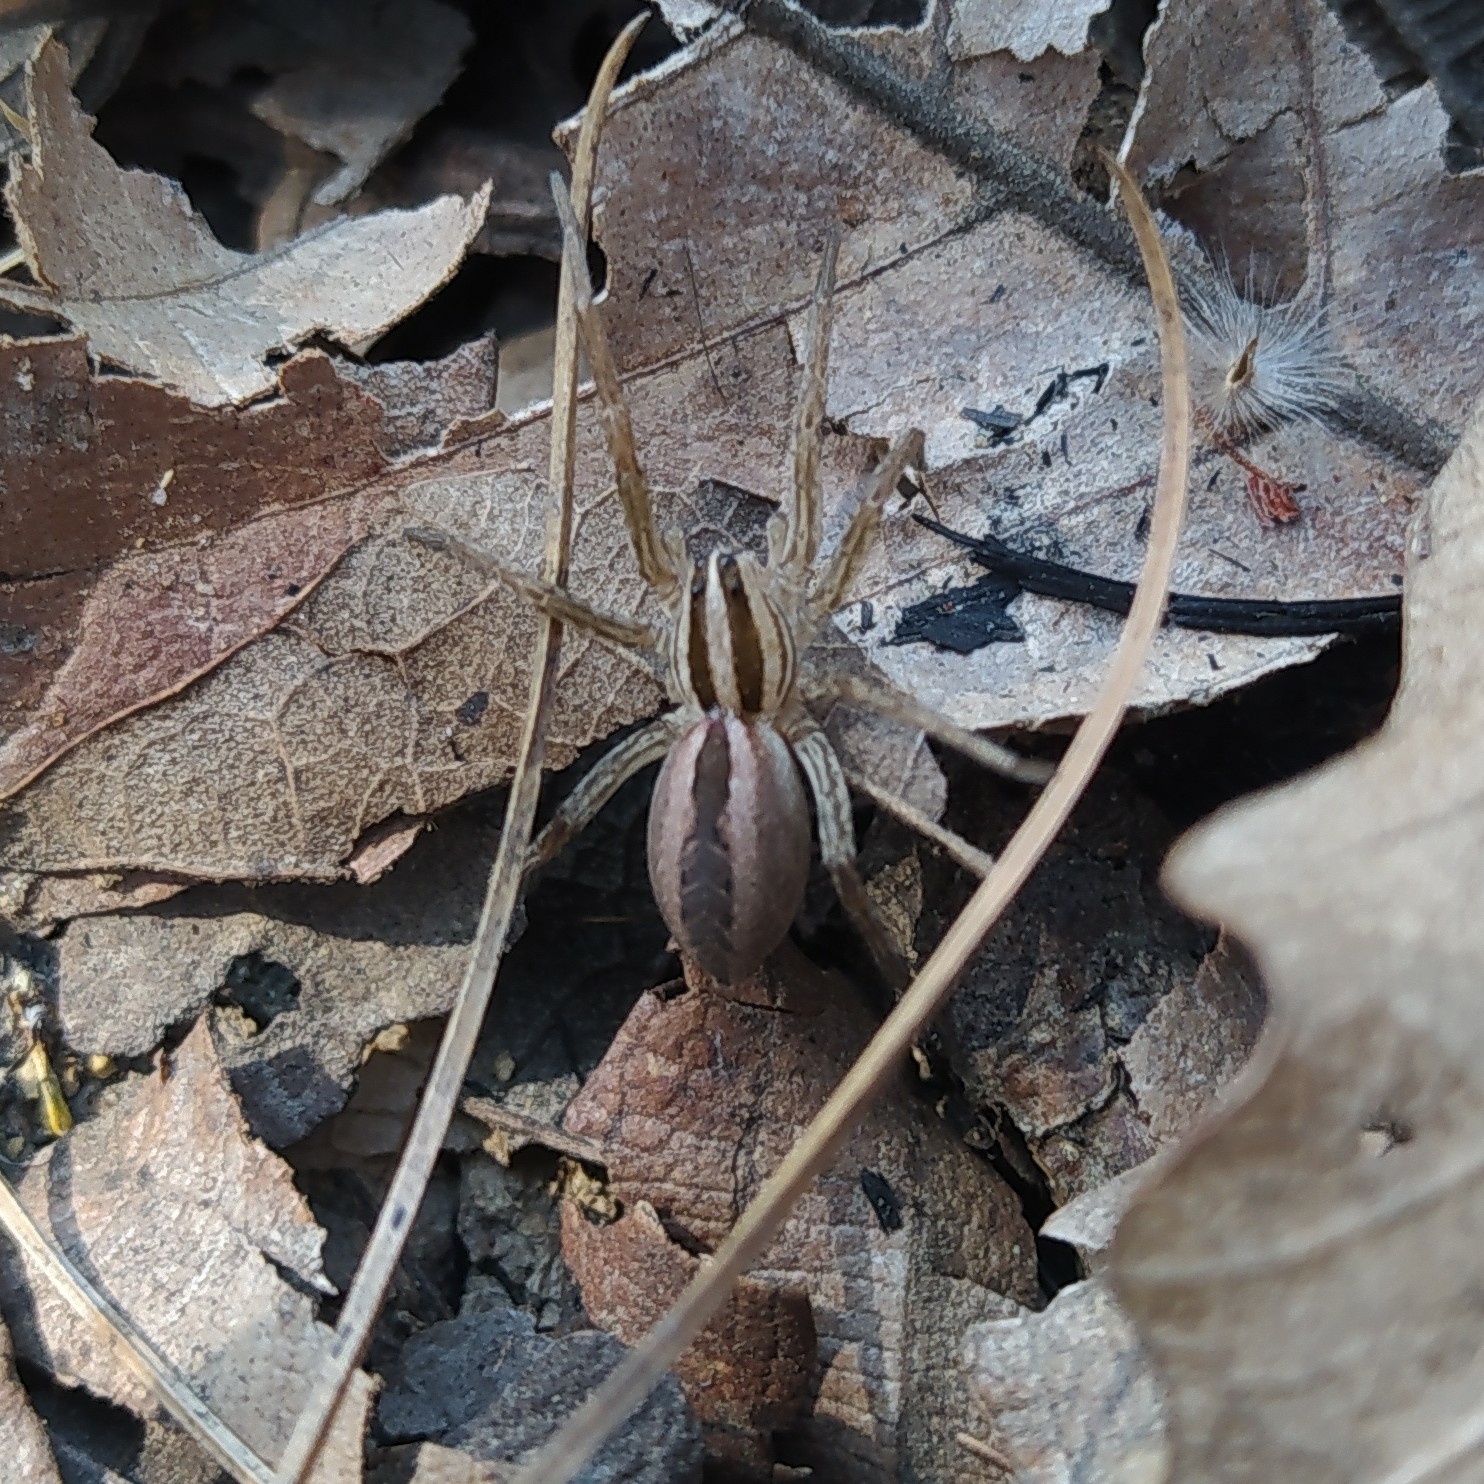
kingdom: Animalia
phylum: Arthropoda
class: Arachnida
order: Araneae
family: Lycosidae
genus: Rabidosa
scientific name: Rabidosa rabida
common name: Rabid wolf spider
